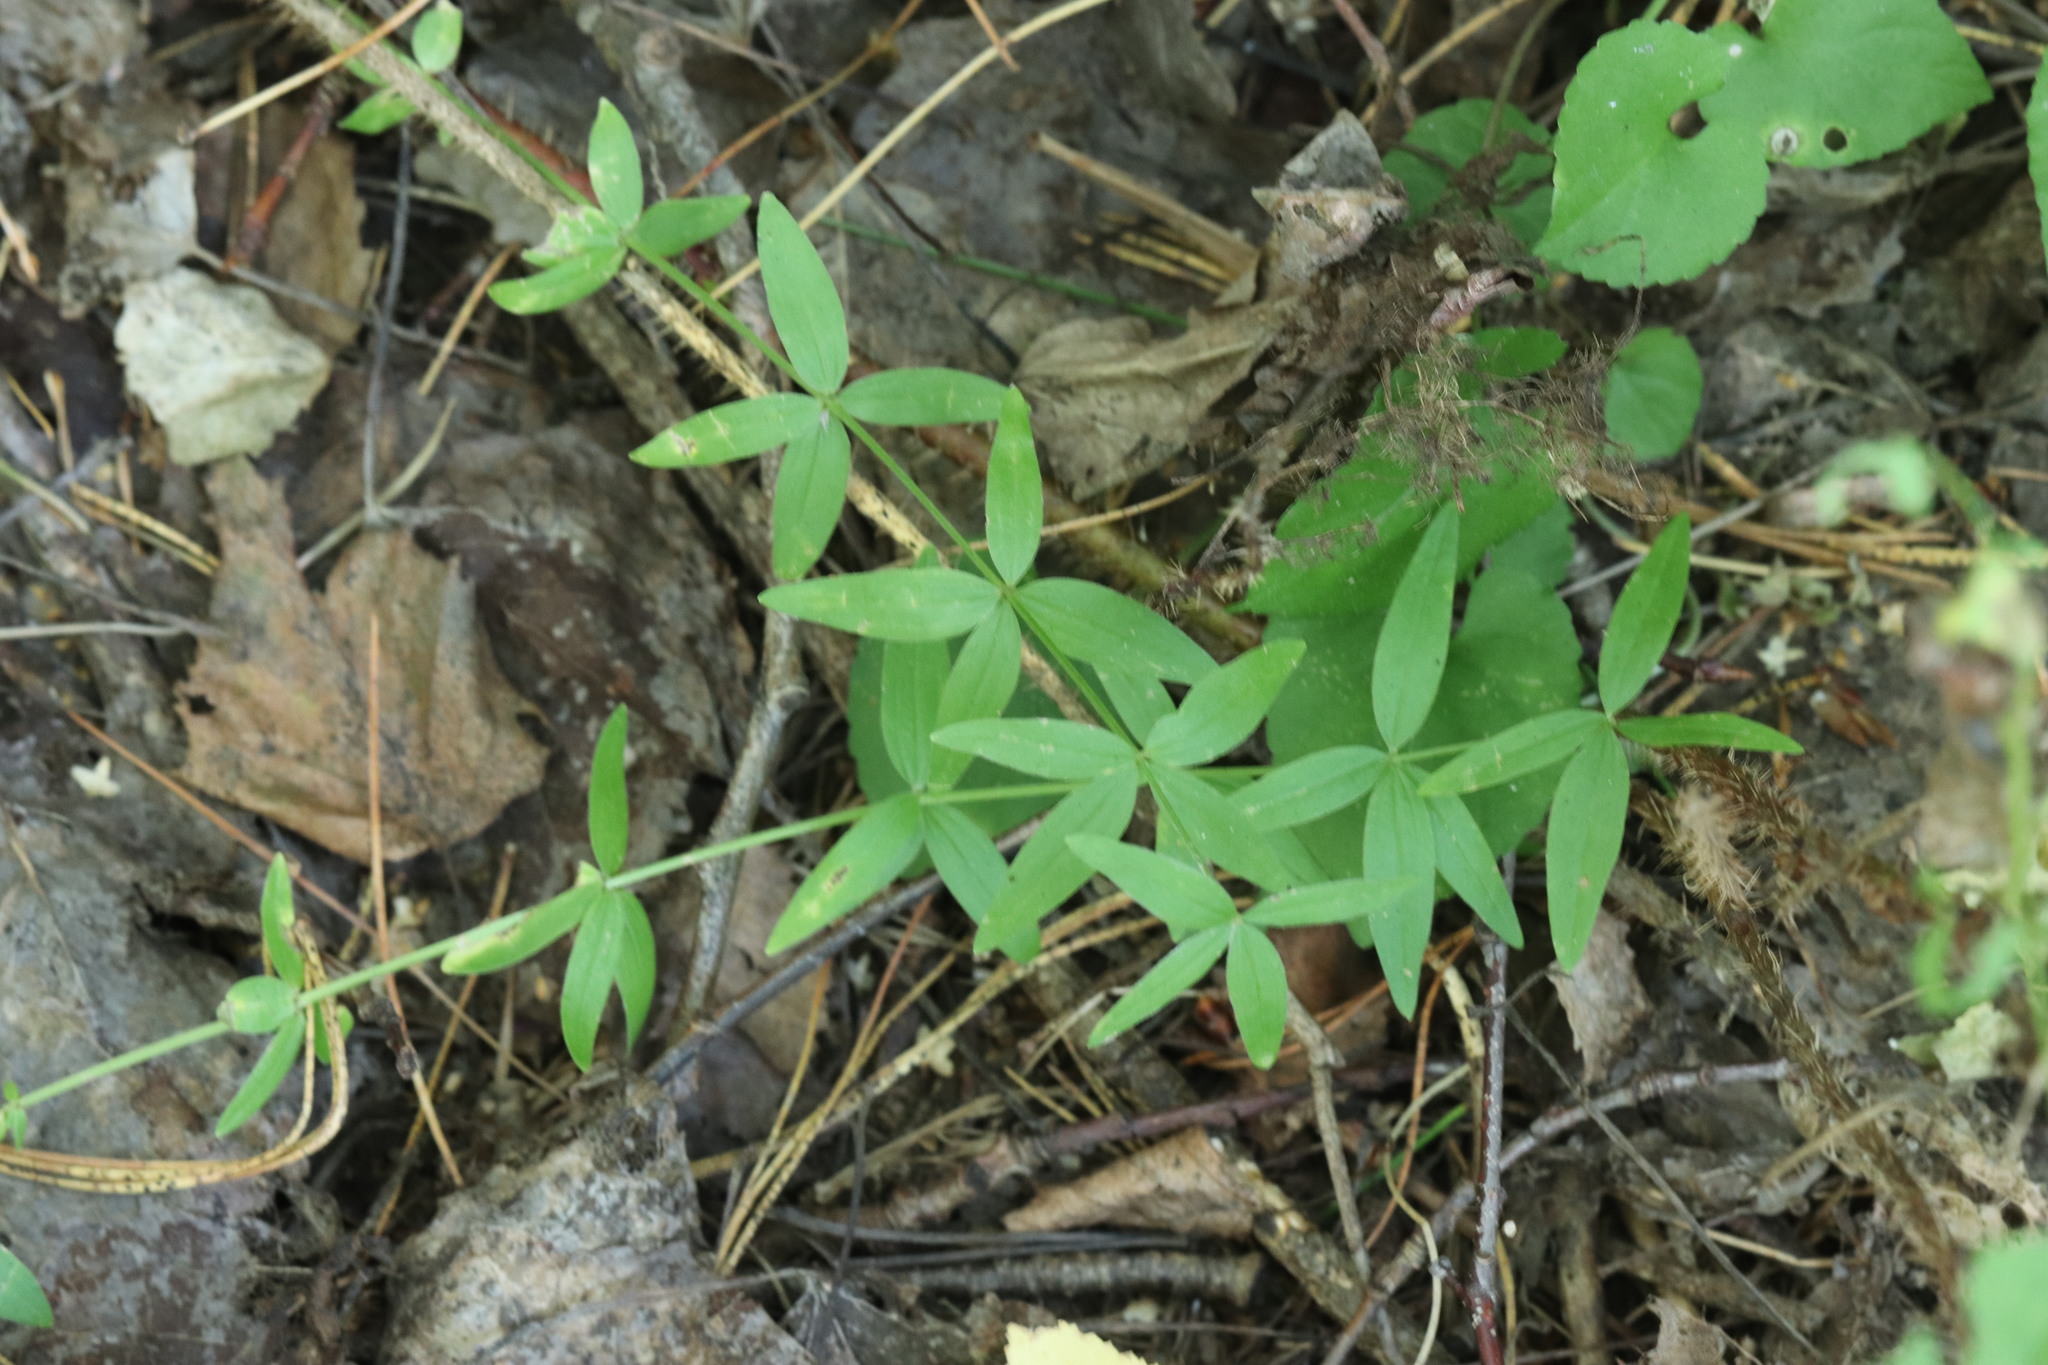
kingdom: Plantae
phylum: Tracheophyta
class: Magnoliopsida
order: Gentianales
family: Rubiaceae
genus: Galium
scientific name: Galium boreale
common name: Northern bedstraw
